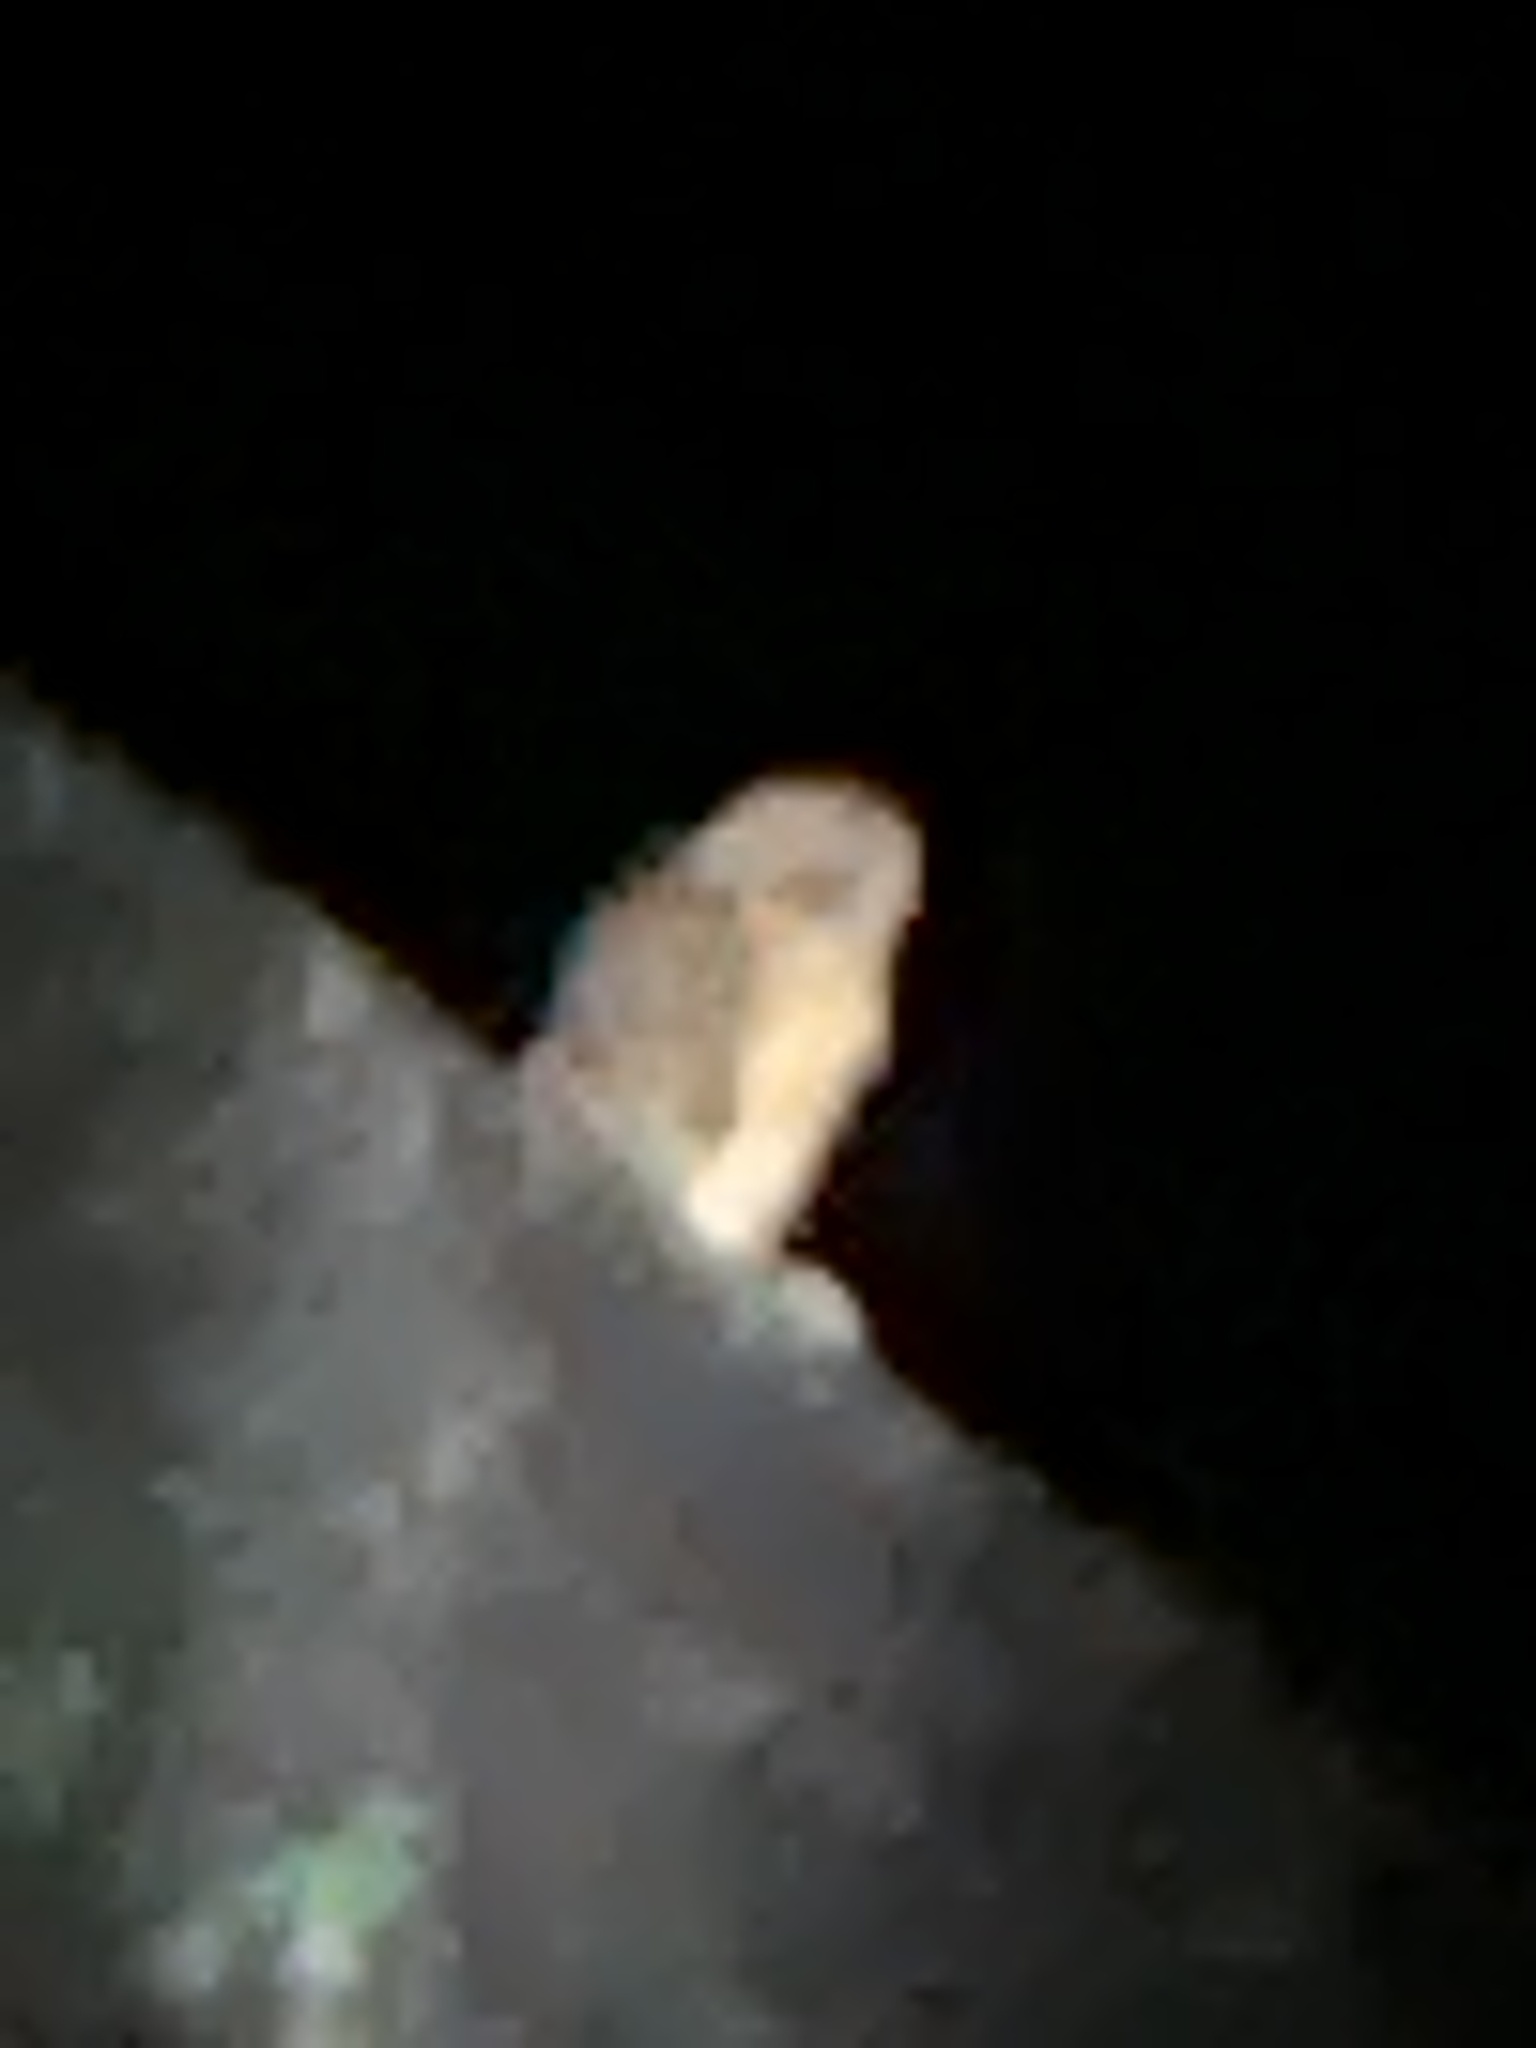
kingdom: Animalia
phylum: Chordata
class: Aves
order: Strigiformes
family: Tytonidae
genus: Tyto
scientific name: Tyto rosenbergii
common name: Sulawesi masked owl
